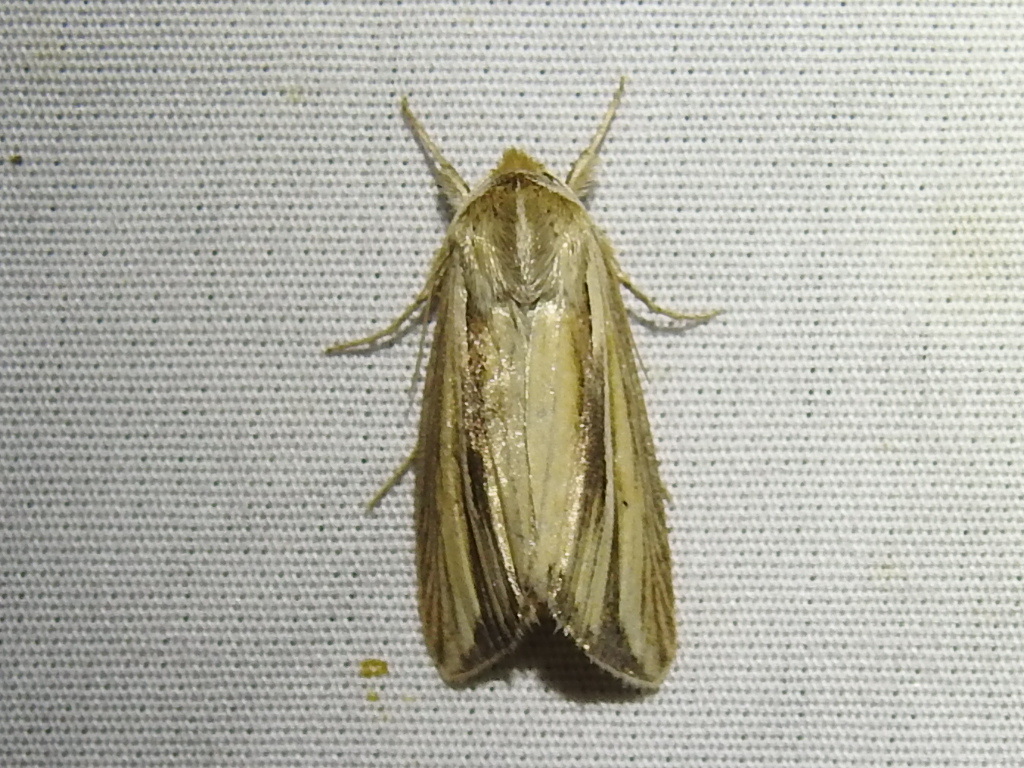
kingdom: Animalia
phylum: Arthropoda
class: Insecta
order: Lepidoptera
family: Noctuidae
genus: Dargida
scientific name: Dargida diffusa
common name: Wheat head armyworm
